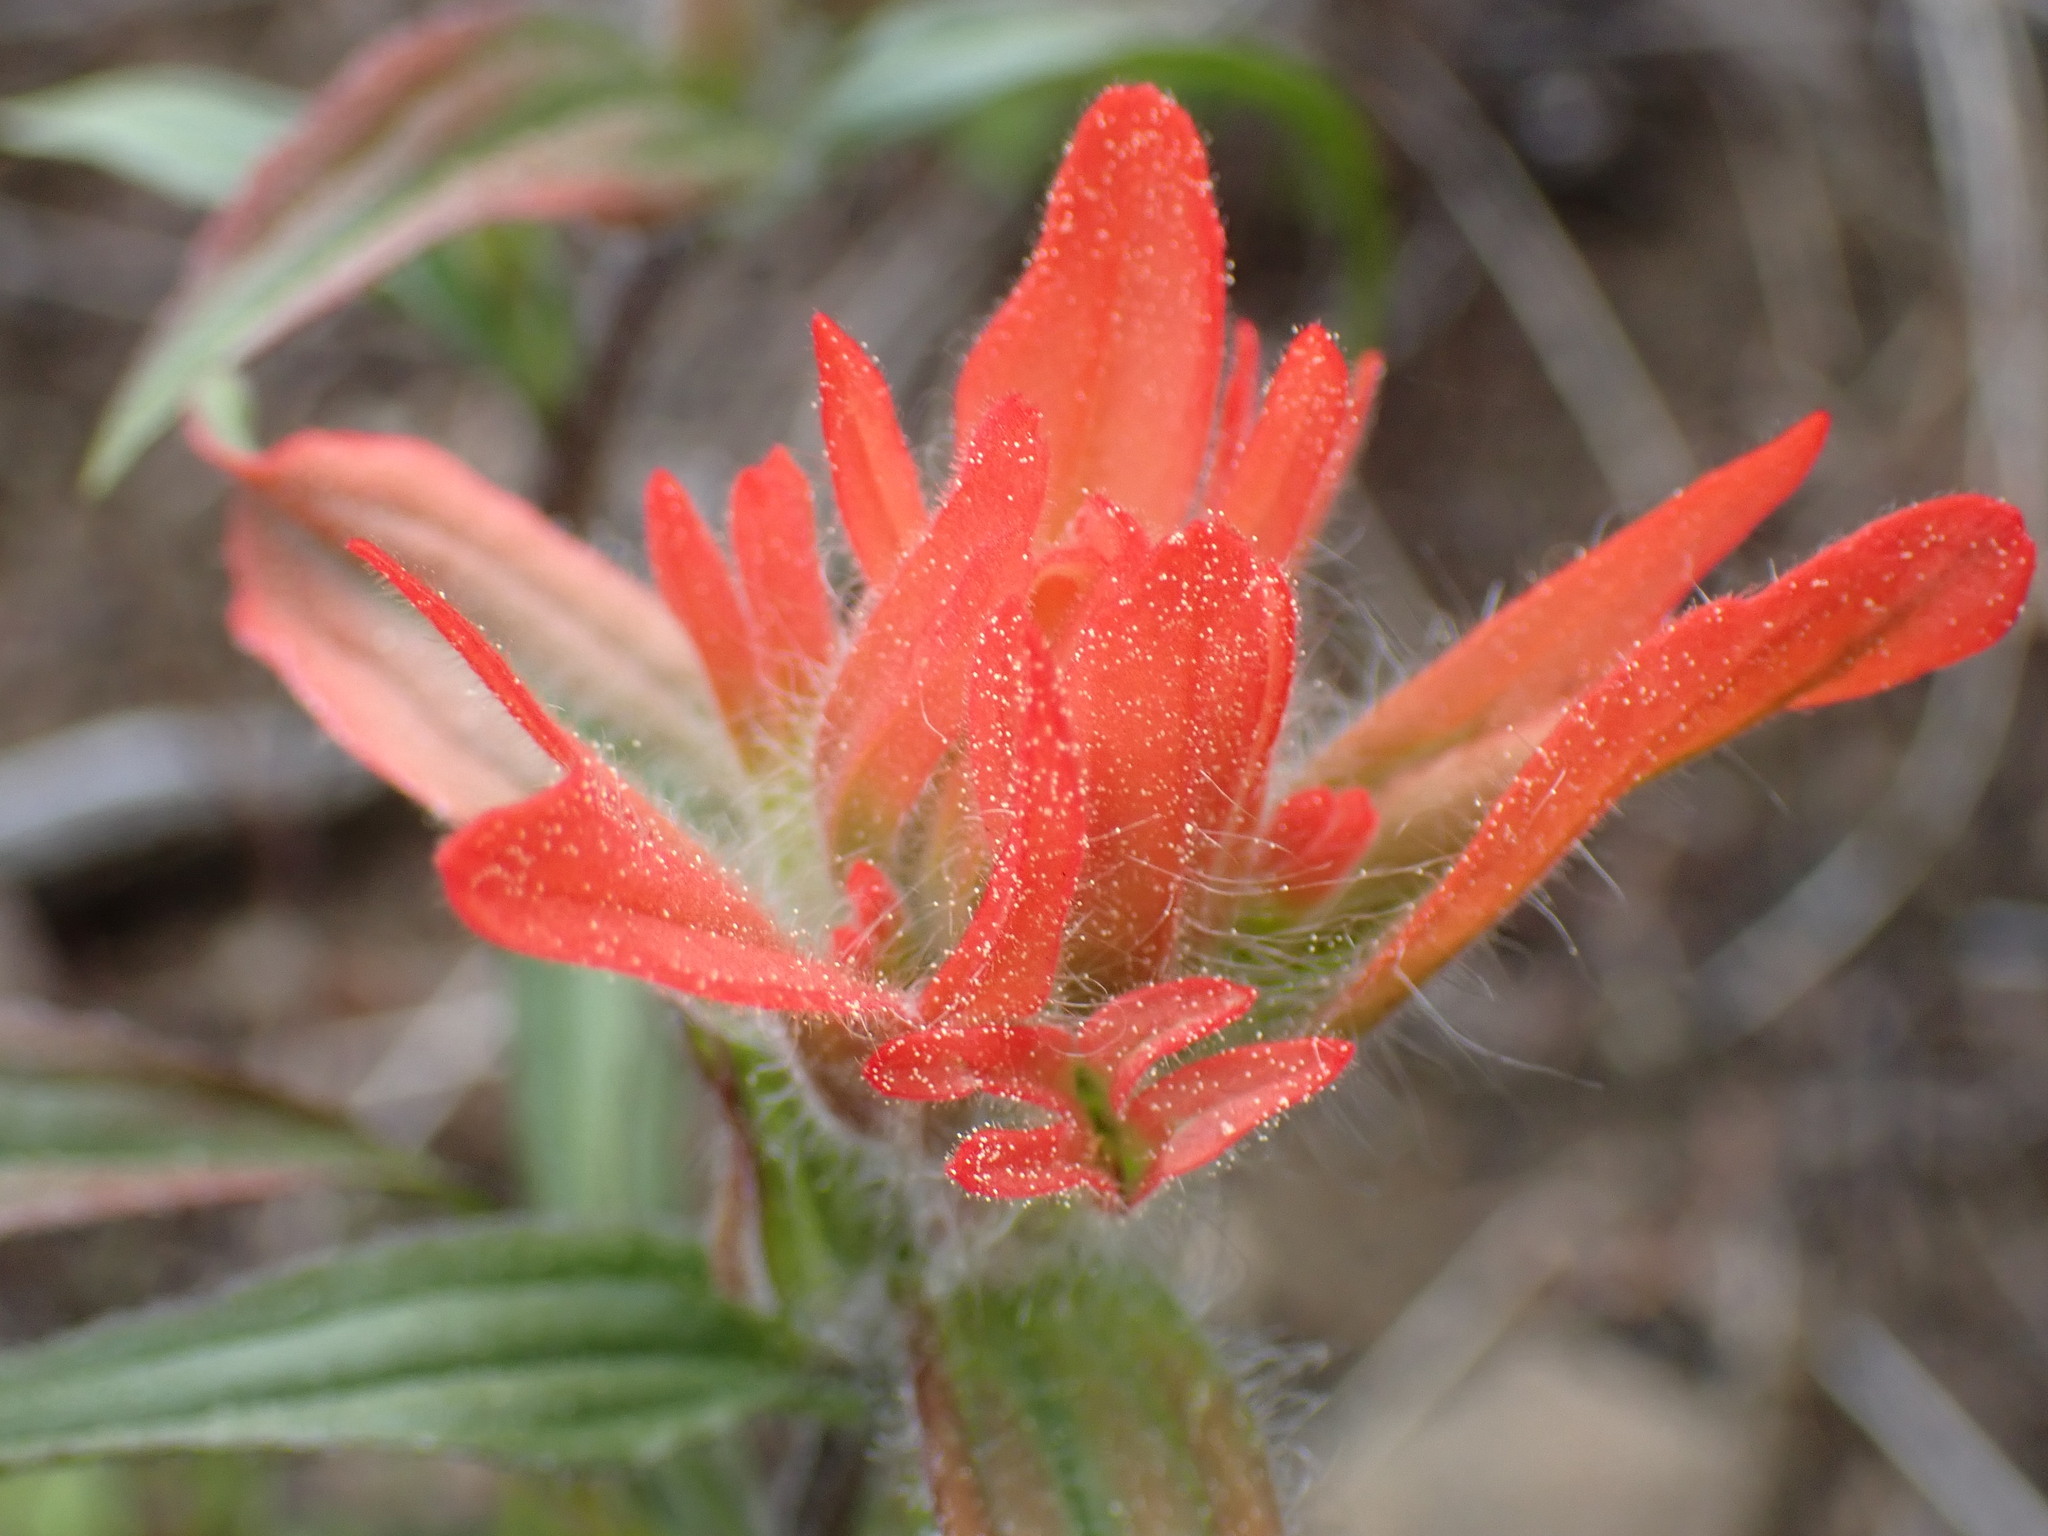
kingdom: Plantae
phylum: Tracheophyta
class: Magnoliopsida
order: Lamiales
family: Orobanchaceae
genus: Castilleja
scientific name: Castilleja miniata
